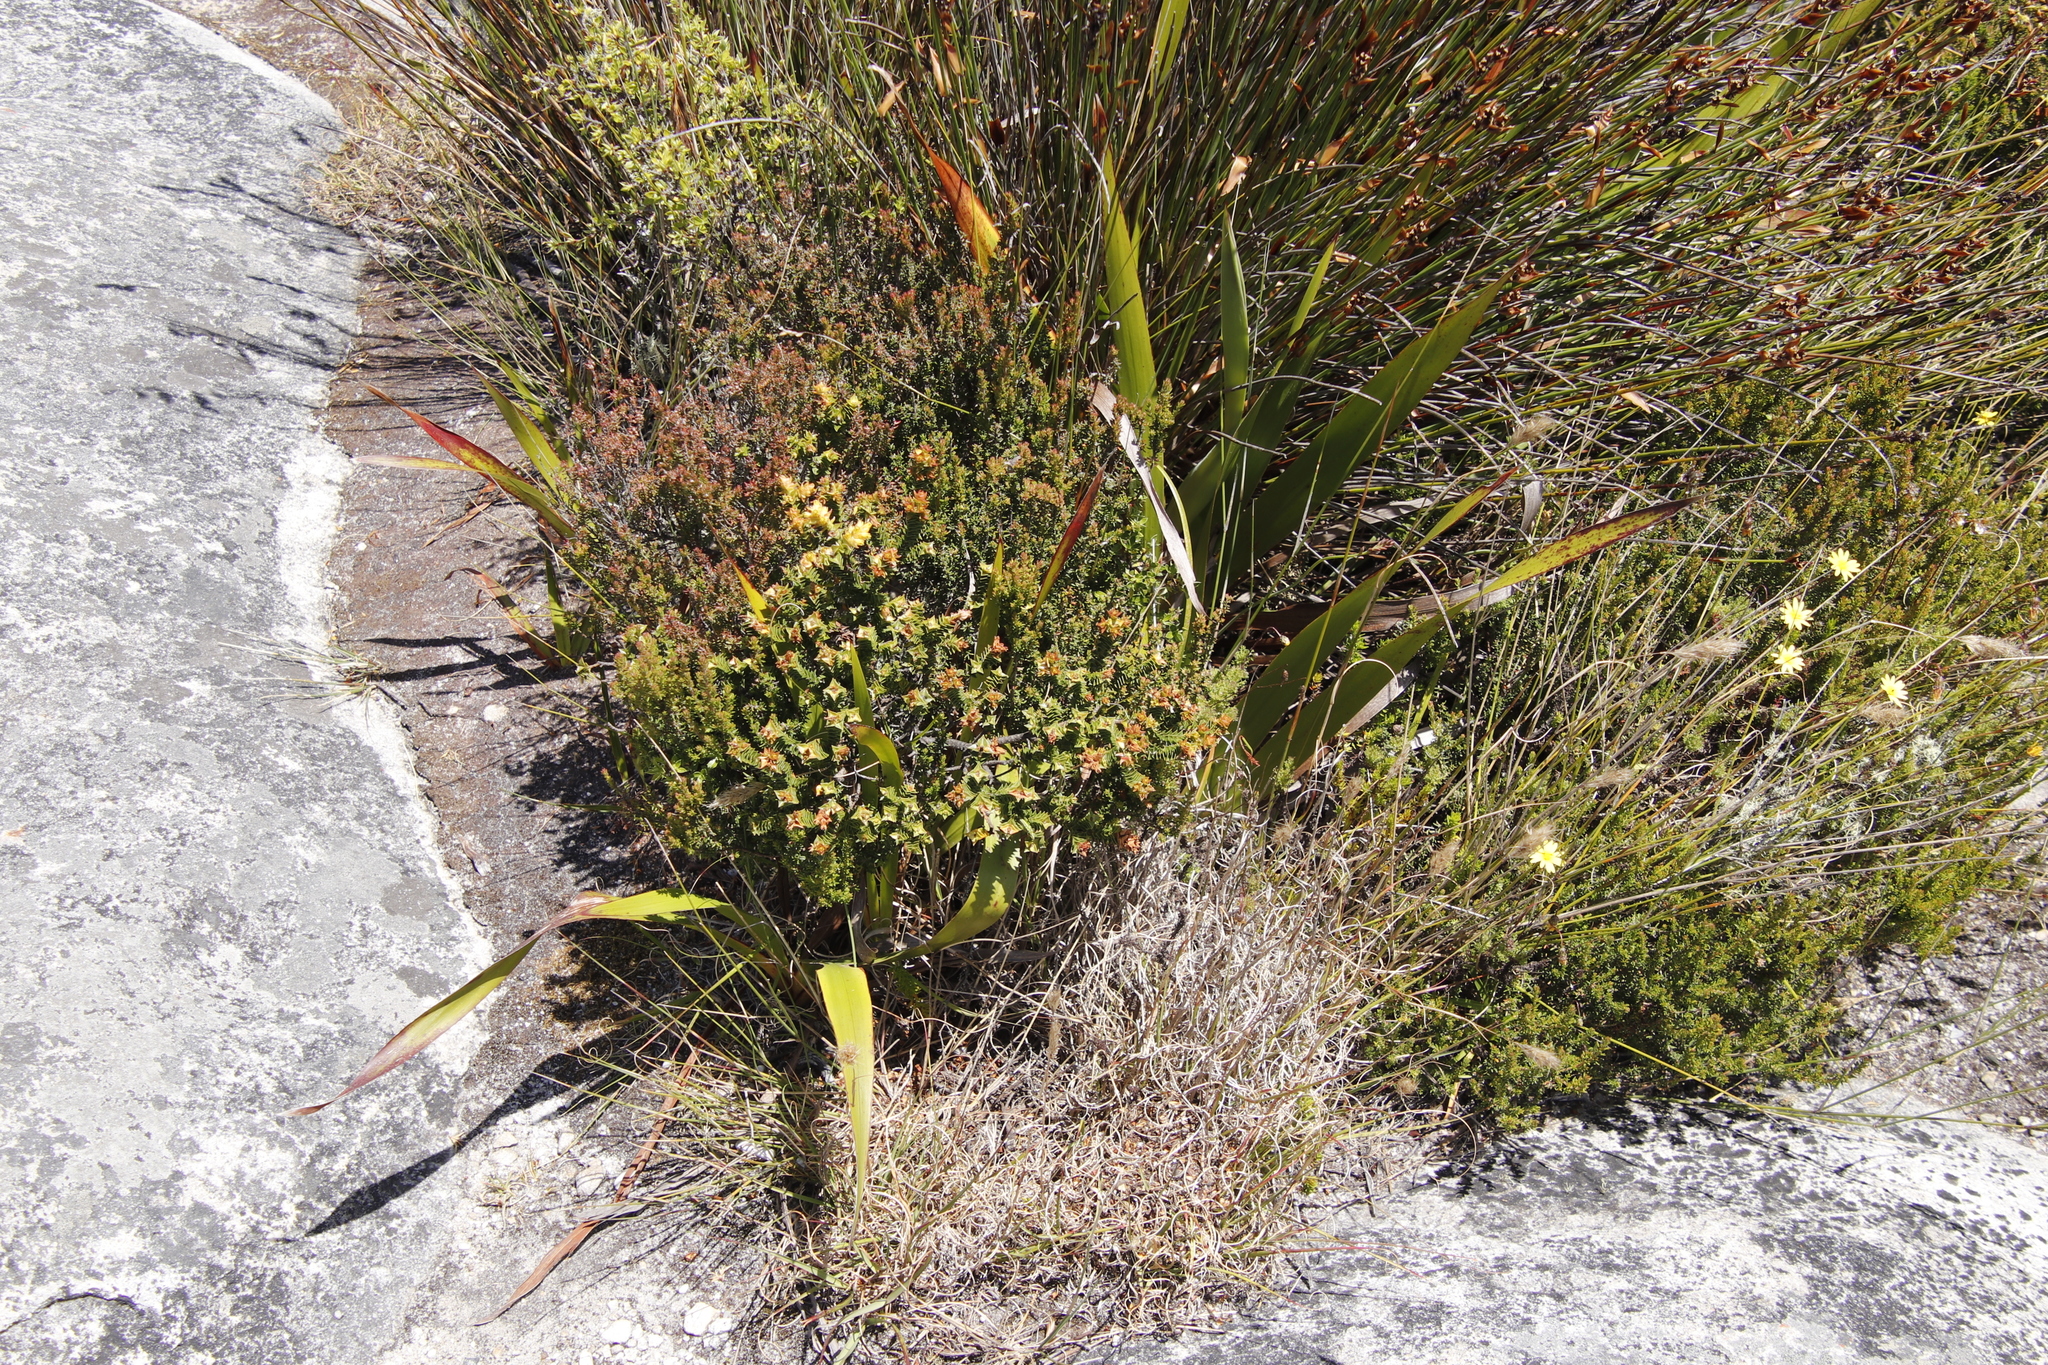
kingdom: Plantae
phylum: Tracheophyta
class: Magnoliopsida
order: Myrtales
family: Penaeaceae
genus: Penaea
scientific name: Penaea mucronata
